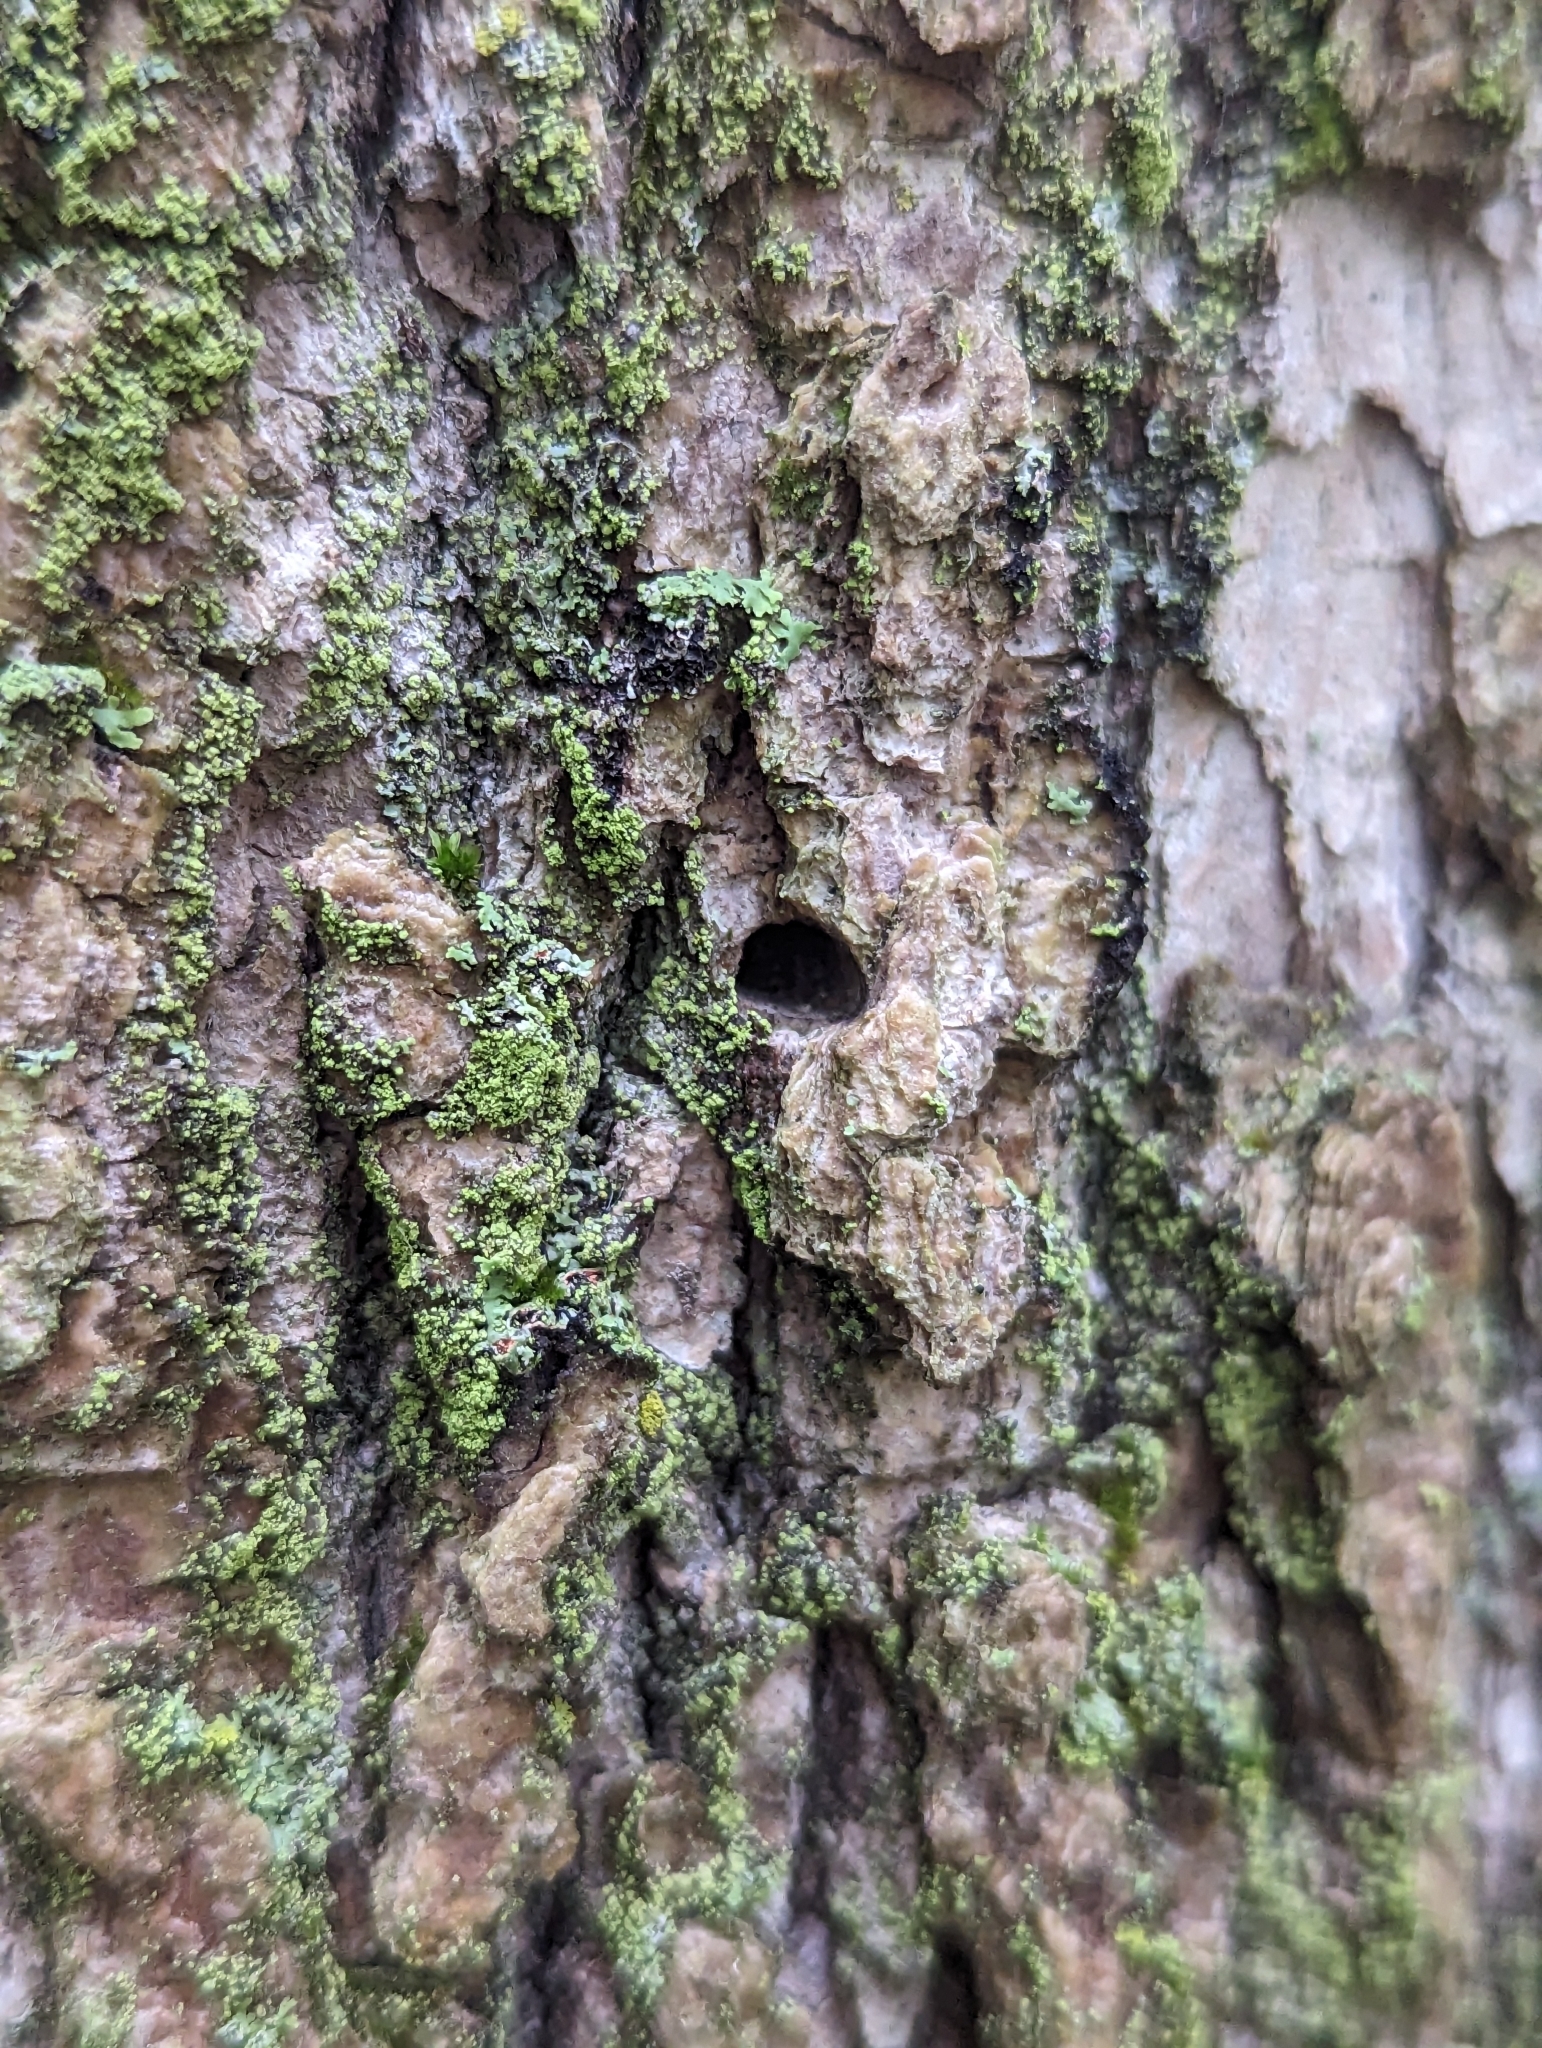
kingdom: Animalia
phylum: Arthropoda
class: Insecta
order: Coleoptera
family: Buprestidae
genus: Agrilus
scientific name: Agrilus planipennis
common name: Emerald ash borer
